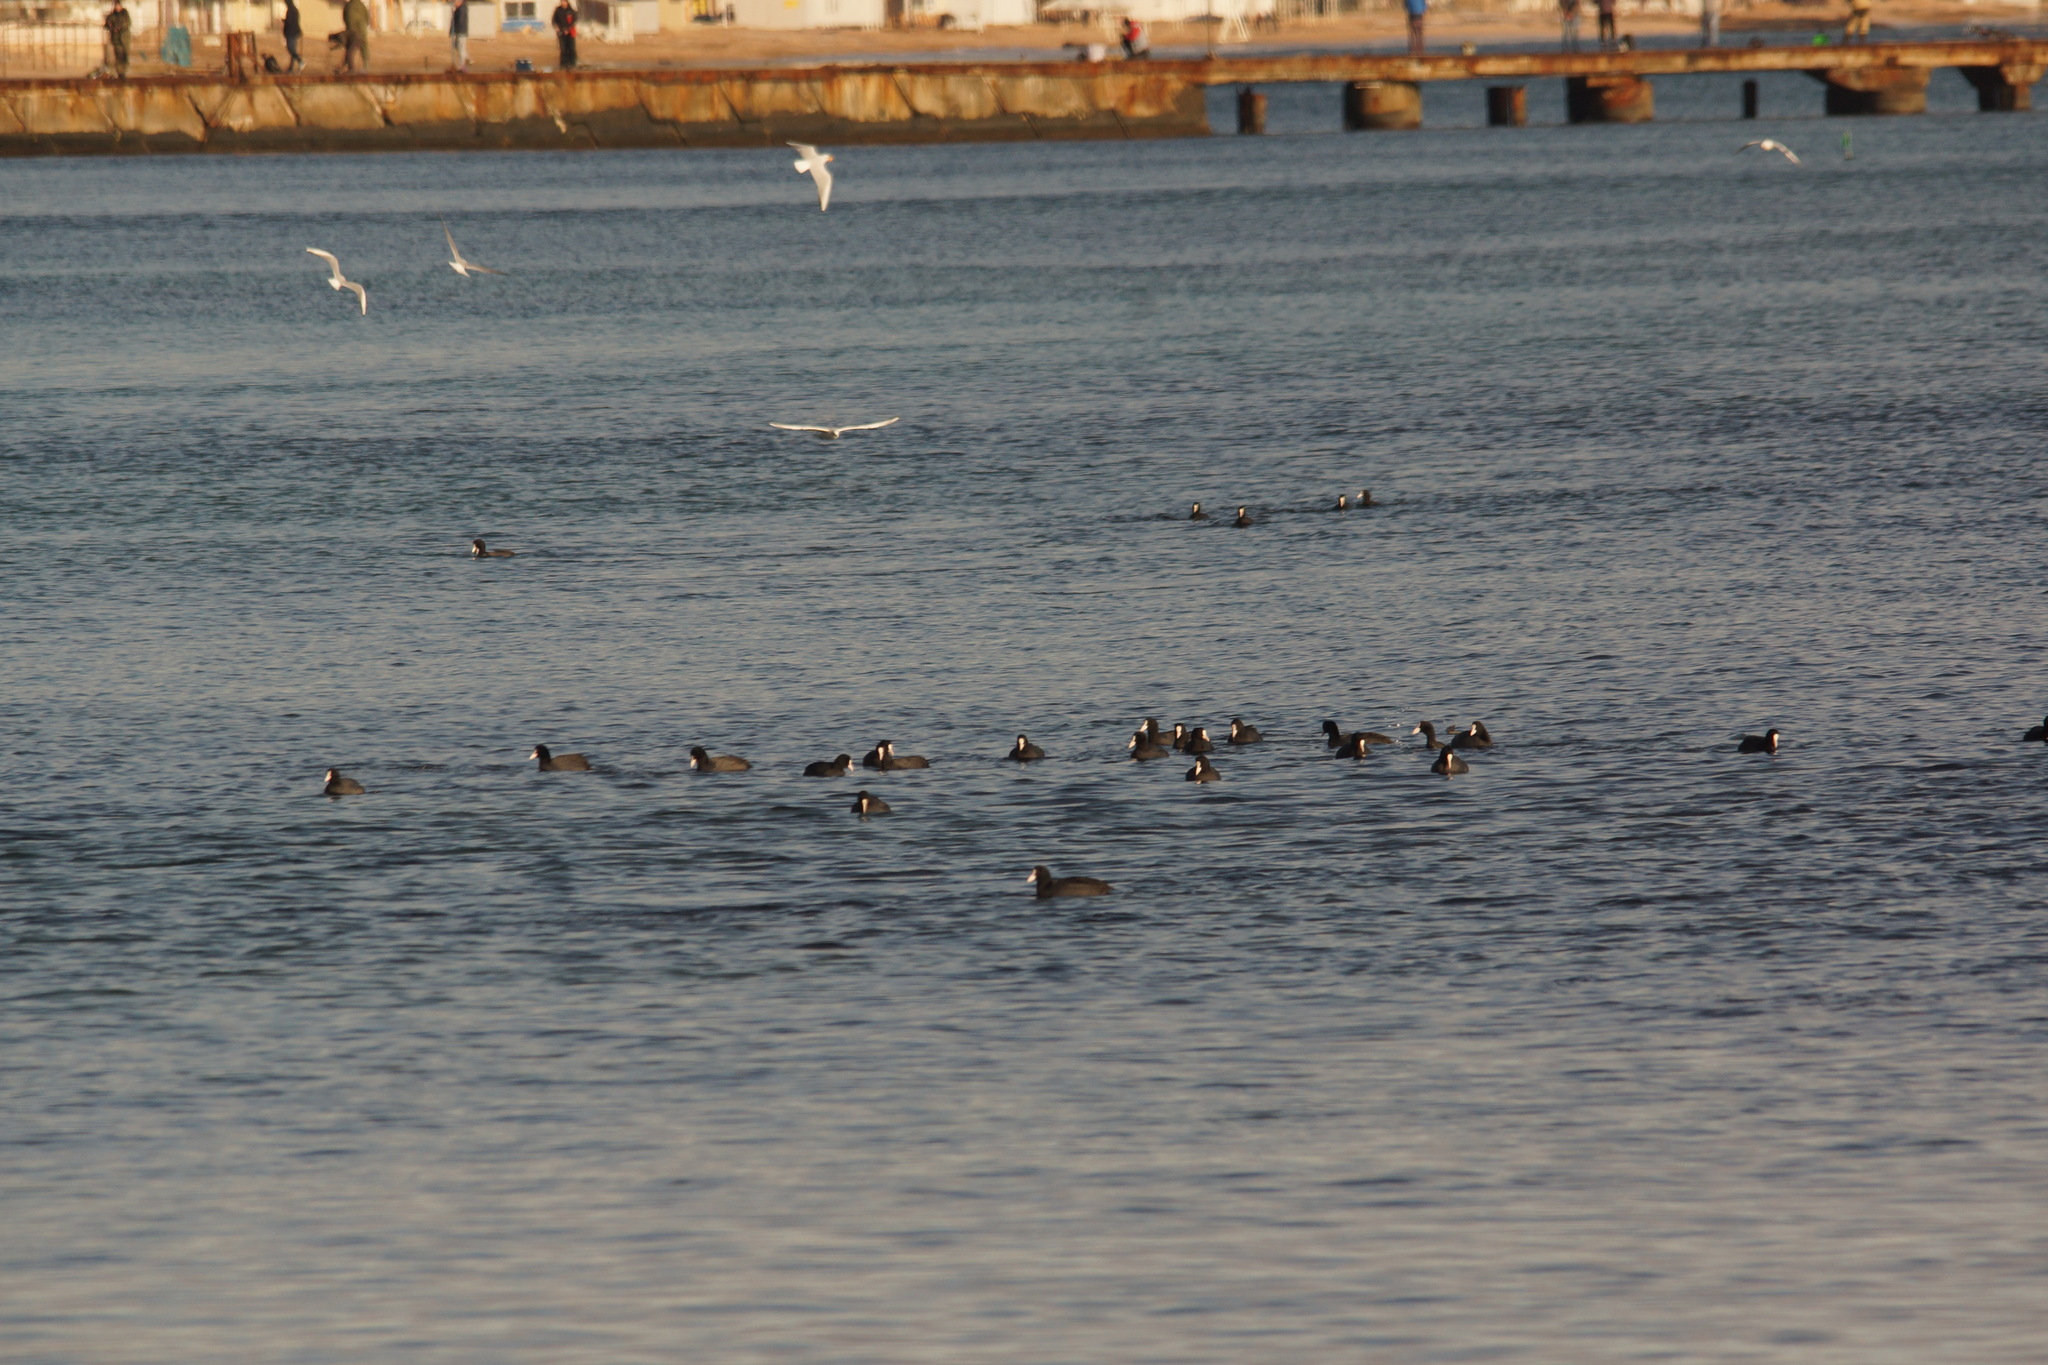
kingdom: Animalia
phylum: Chordata
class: Aves
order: Gruiformes
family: Rallidae
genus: Fulica
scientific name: Fulica atra
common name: Eurasian coot
